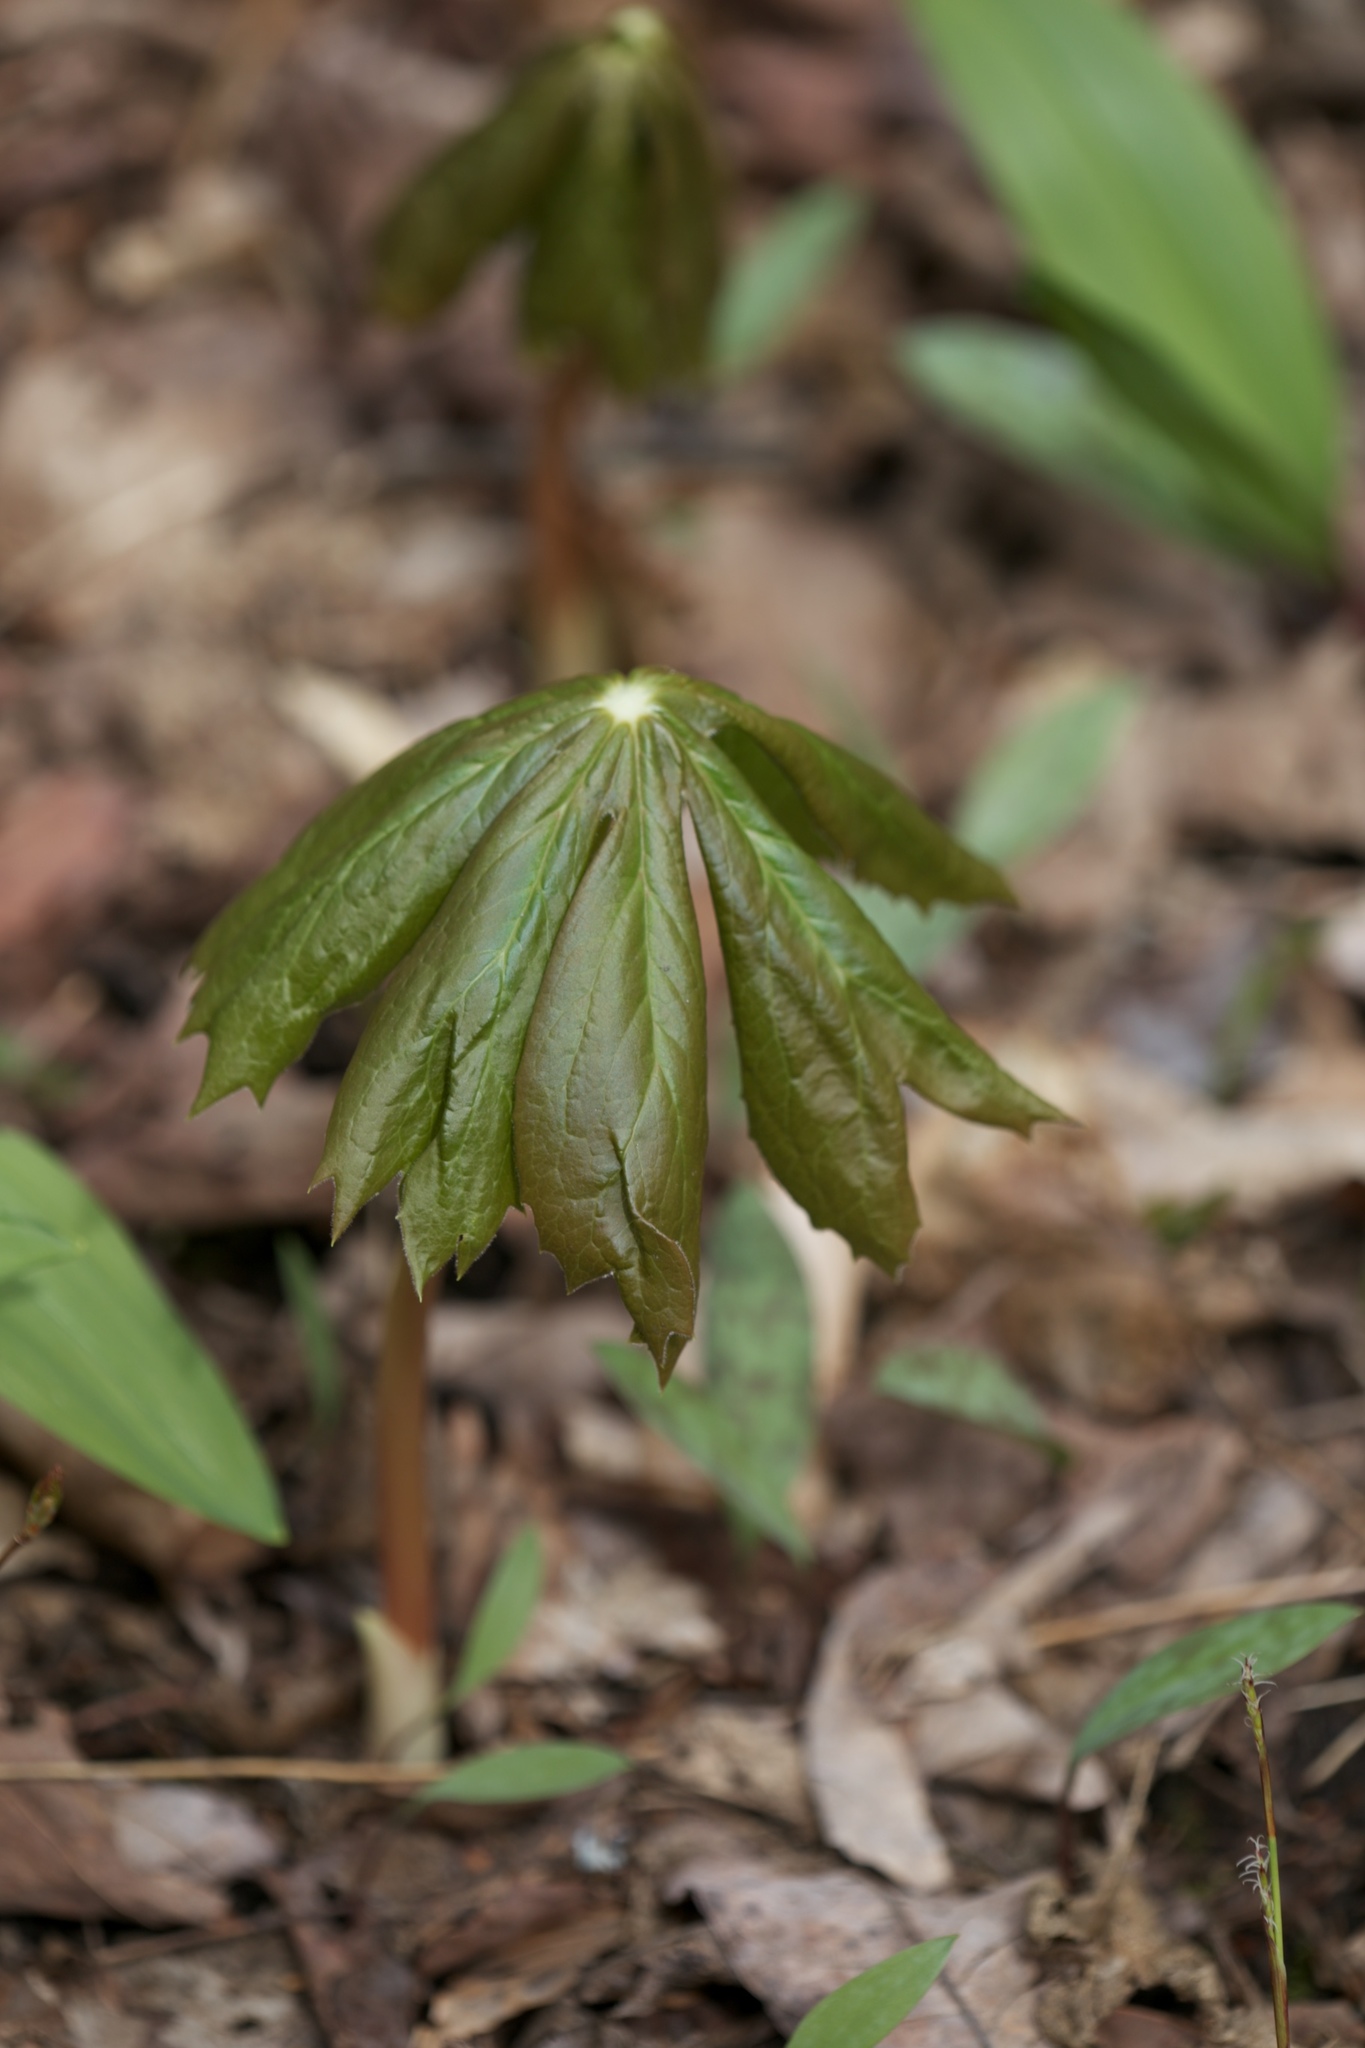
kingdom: Plantae
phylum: Tracheophyta
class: Magnoliopsida
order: Ranunculales
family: Berberidaceae
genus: Podophyllum
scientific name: Podophyllum peltatum
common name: Wild mandrake
